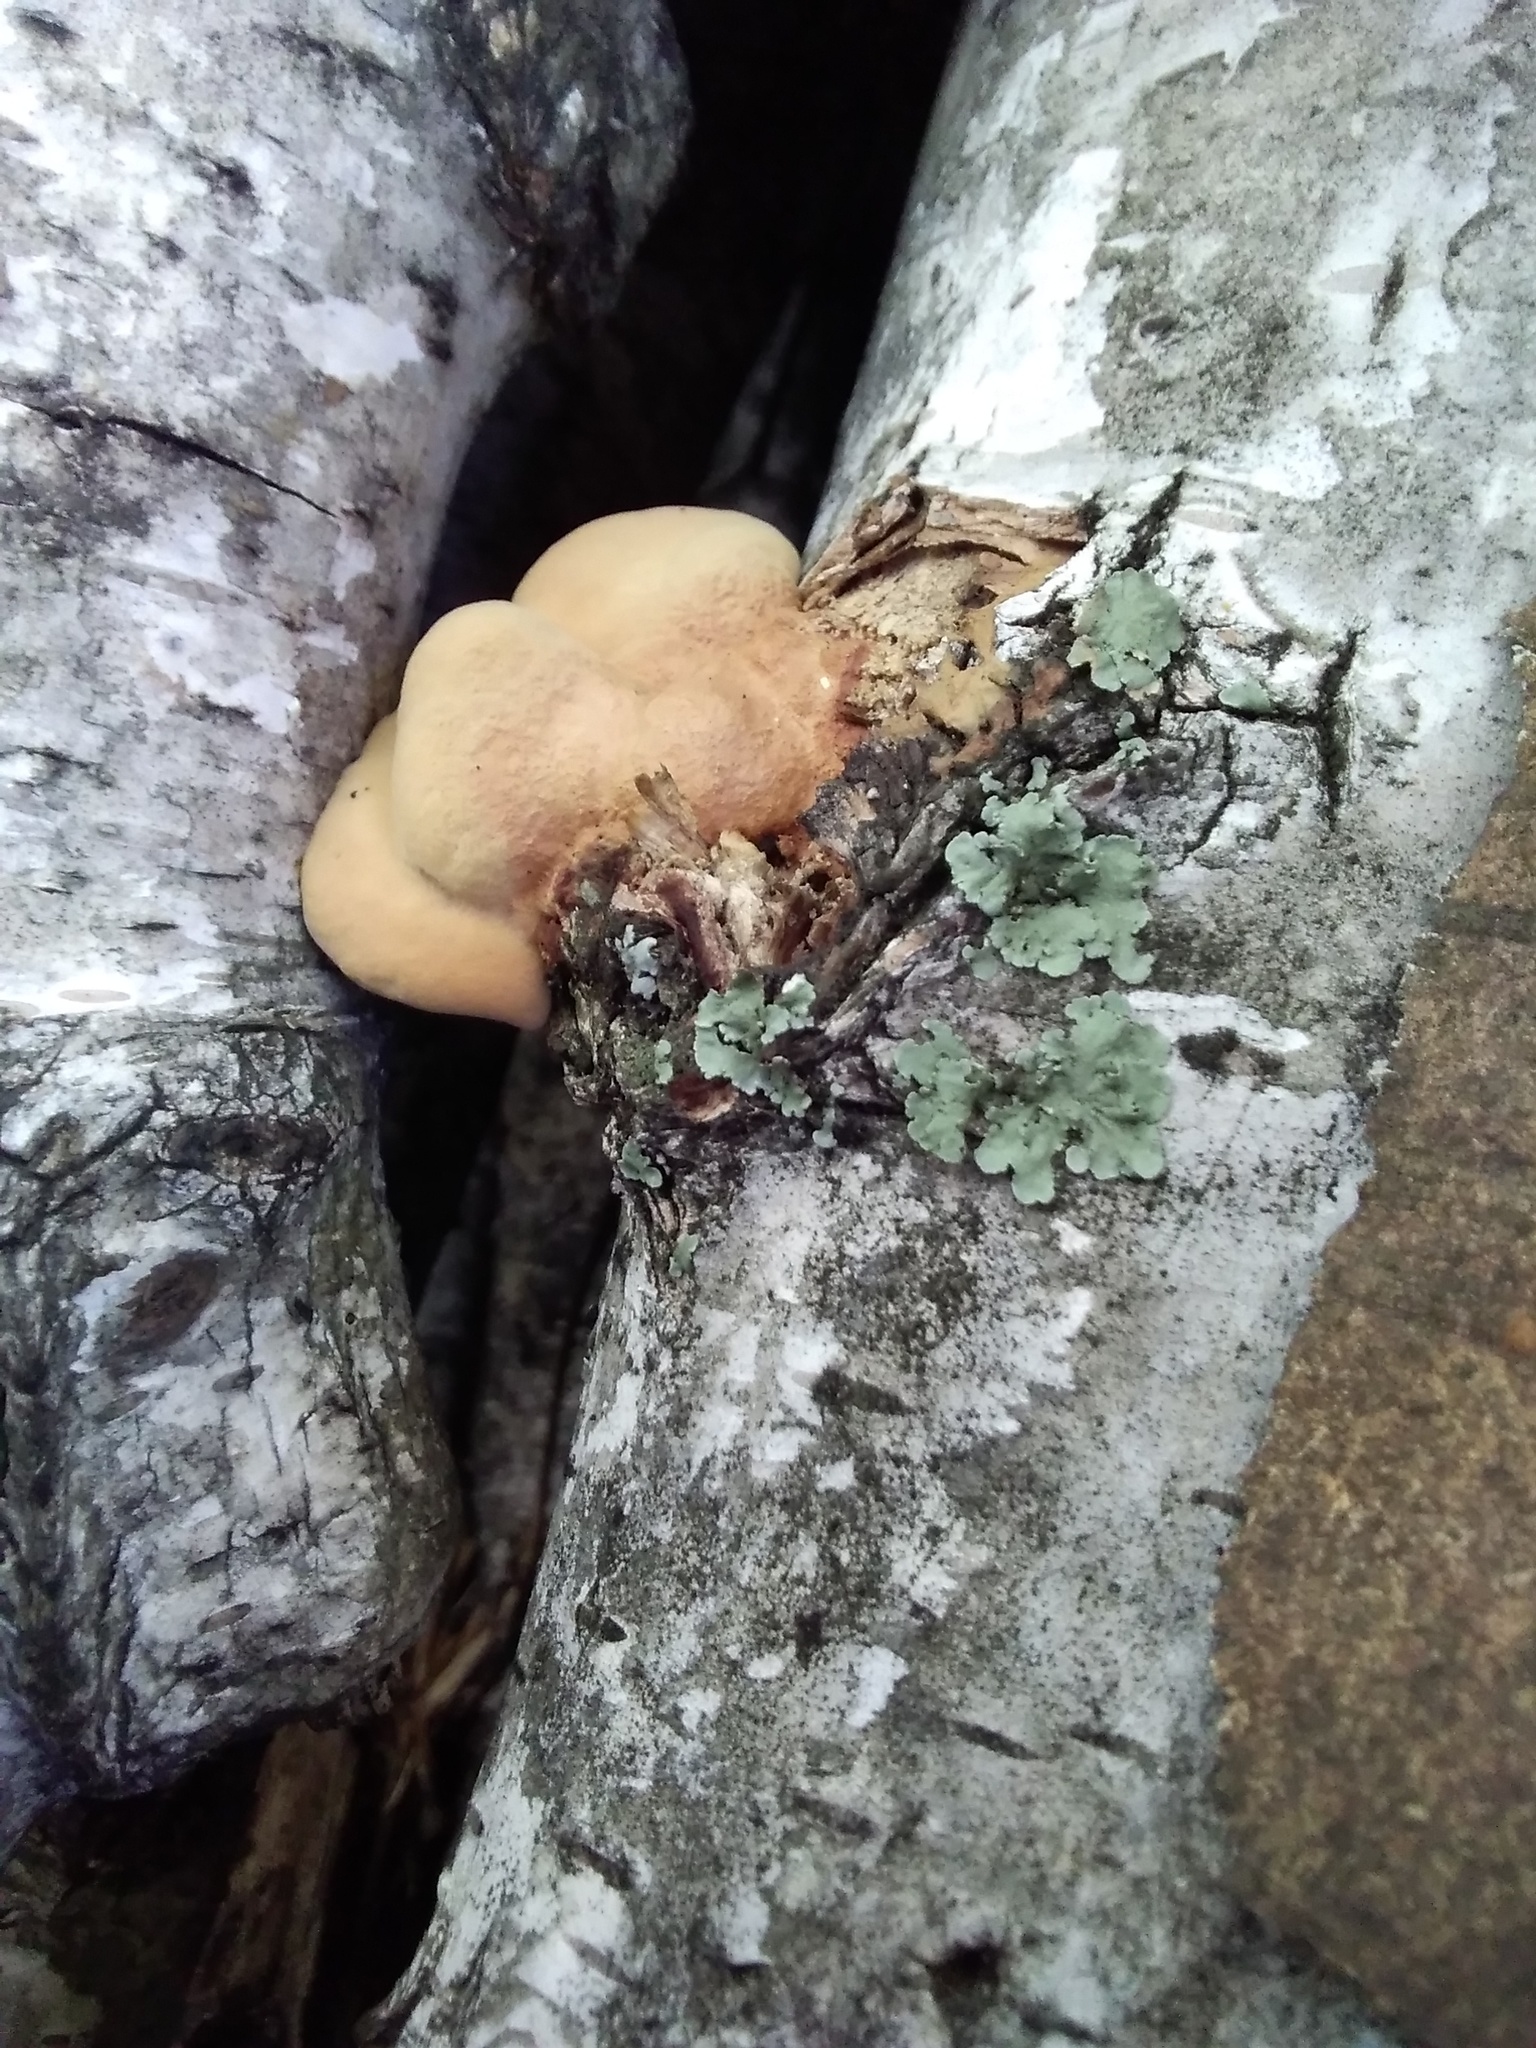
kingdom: Fungi
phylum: Basidiomycota
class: Agaricomycetes
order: Polyporales
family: Phanerochaetaceae
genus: Hapalopilus
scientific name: Hapalopilus rutilans
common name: Tender nesting polypore
